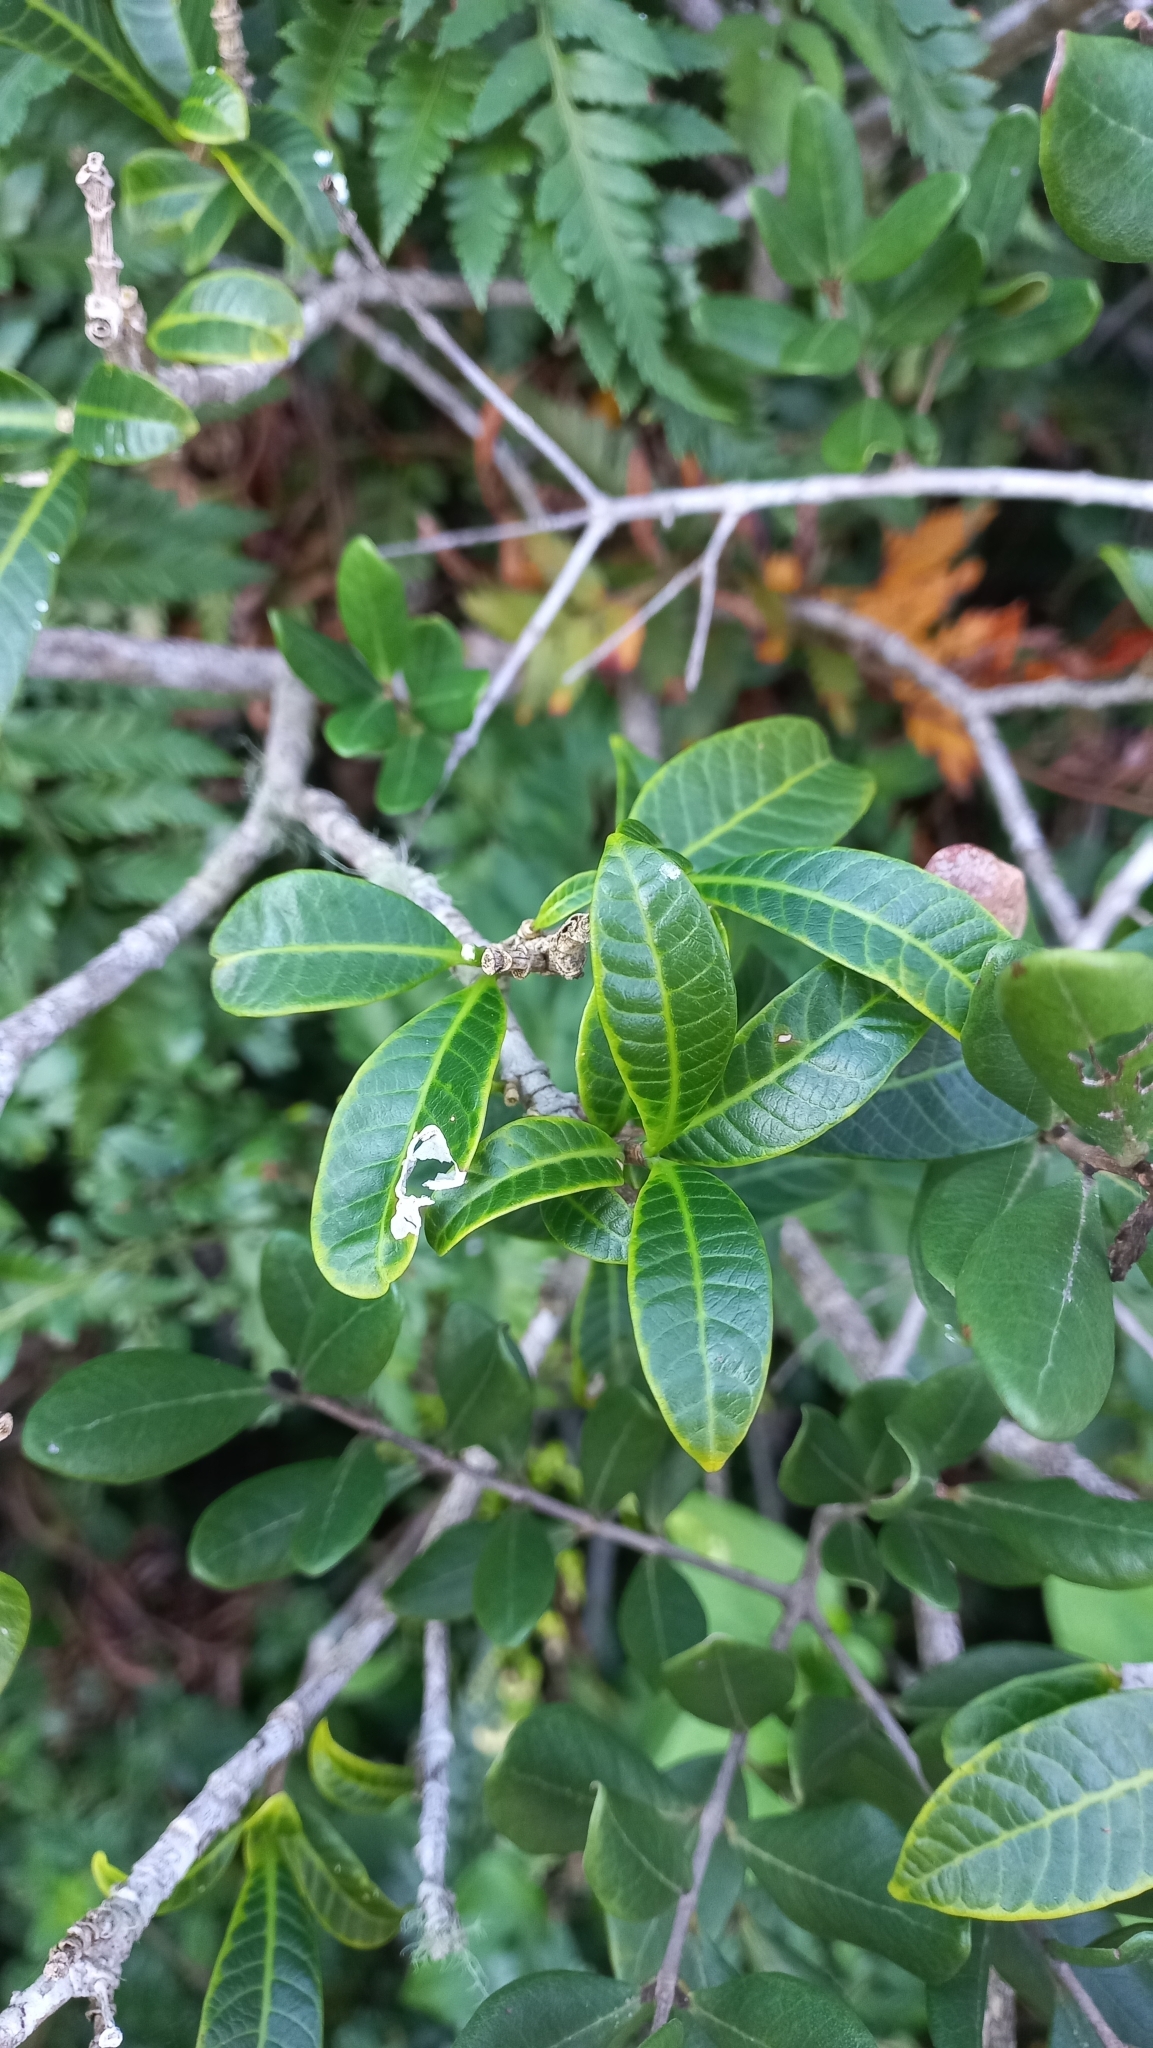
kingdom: Plantae
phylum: Tracheophyta
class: Magnoliopsida
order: Gentianales
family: Apocynaceae
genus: Tabernaemontana
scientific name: Tabernaemontana catharinensis
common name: Pinwheel-flower
